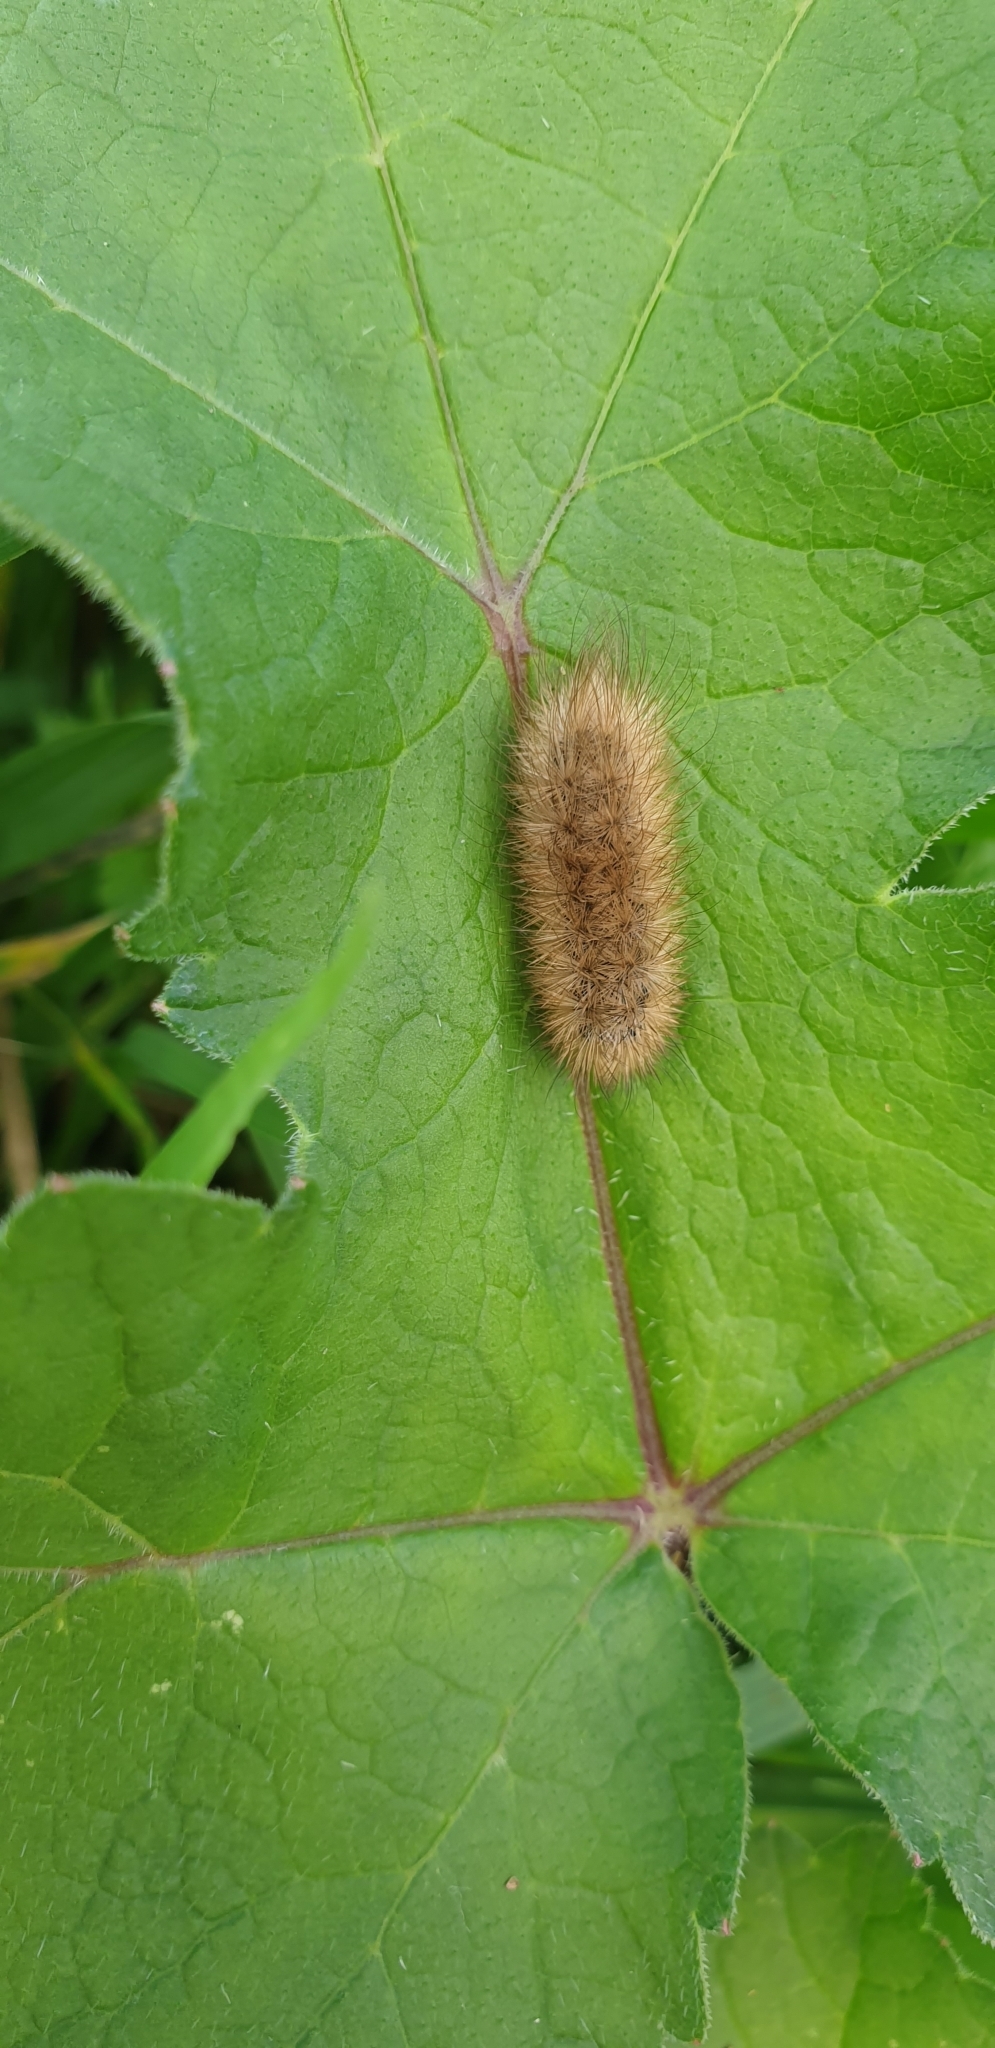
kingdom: Animalia
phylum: Arthropoda
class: Insecta
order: Lepidoptera
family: Erebidae
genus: Phragmatobia
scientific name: Phragmatobia fuliginosa
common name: Ruby tiger
